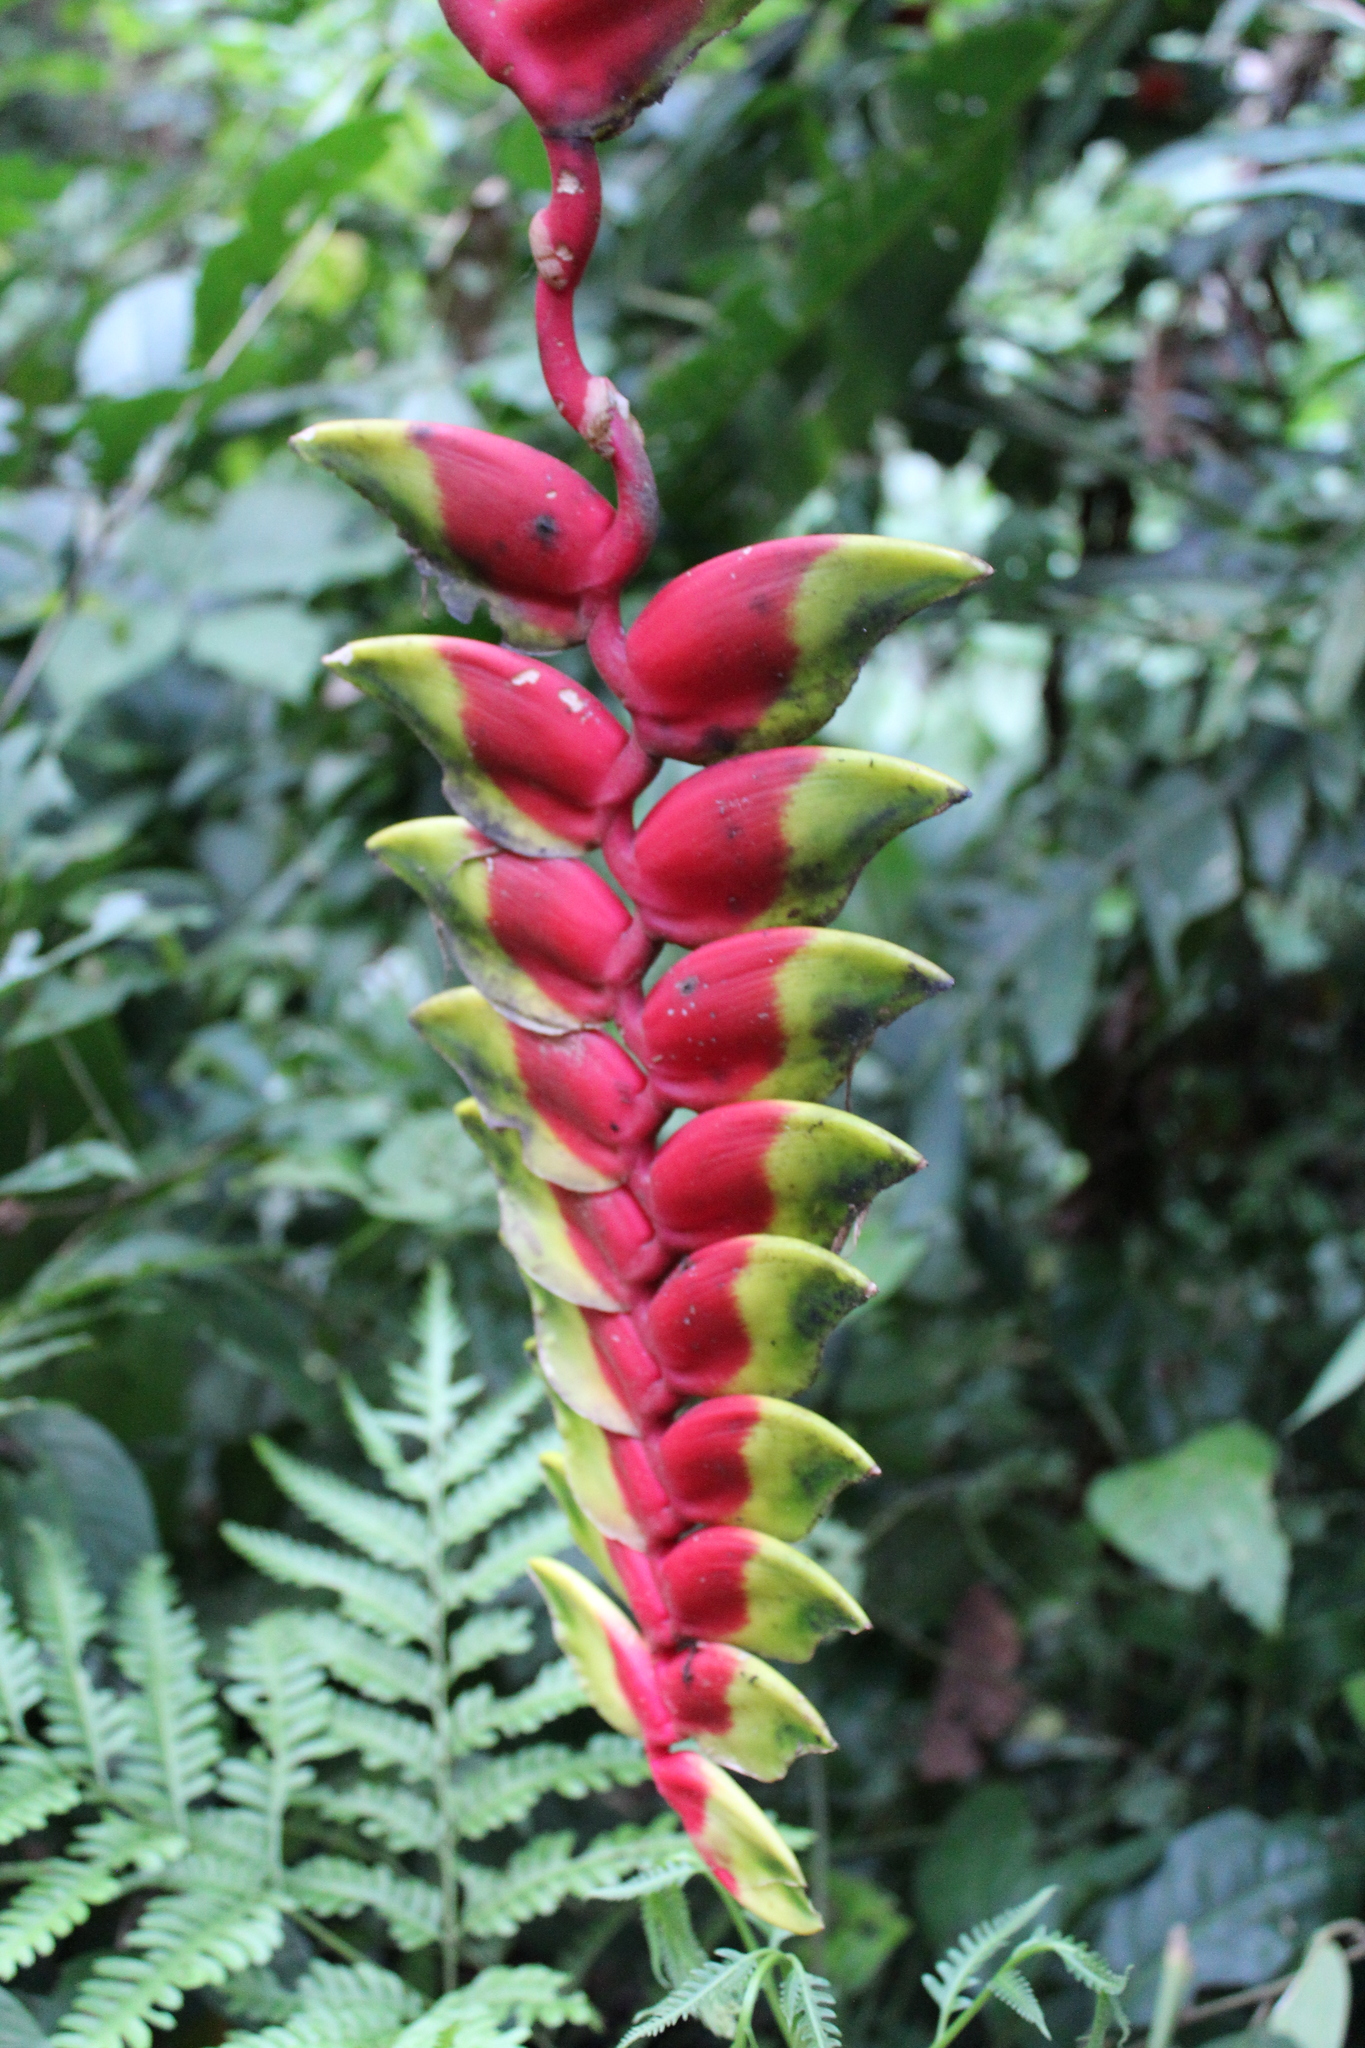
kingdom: Plantae
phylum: Tracheophyta
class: Liliopsida
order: Zingiberales
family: Heliconiaceae
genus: Heliconia
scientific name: Heliconia rostrata
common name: False bird of paradise
